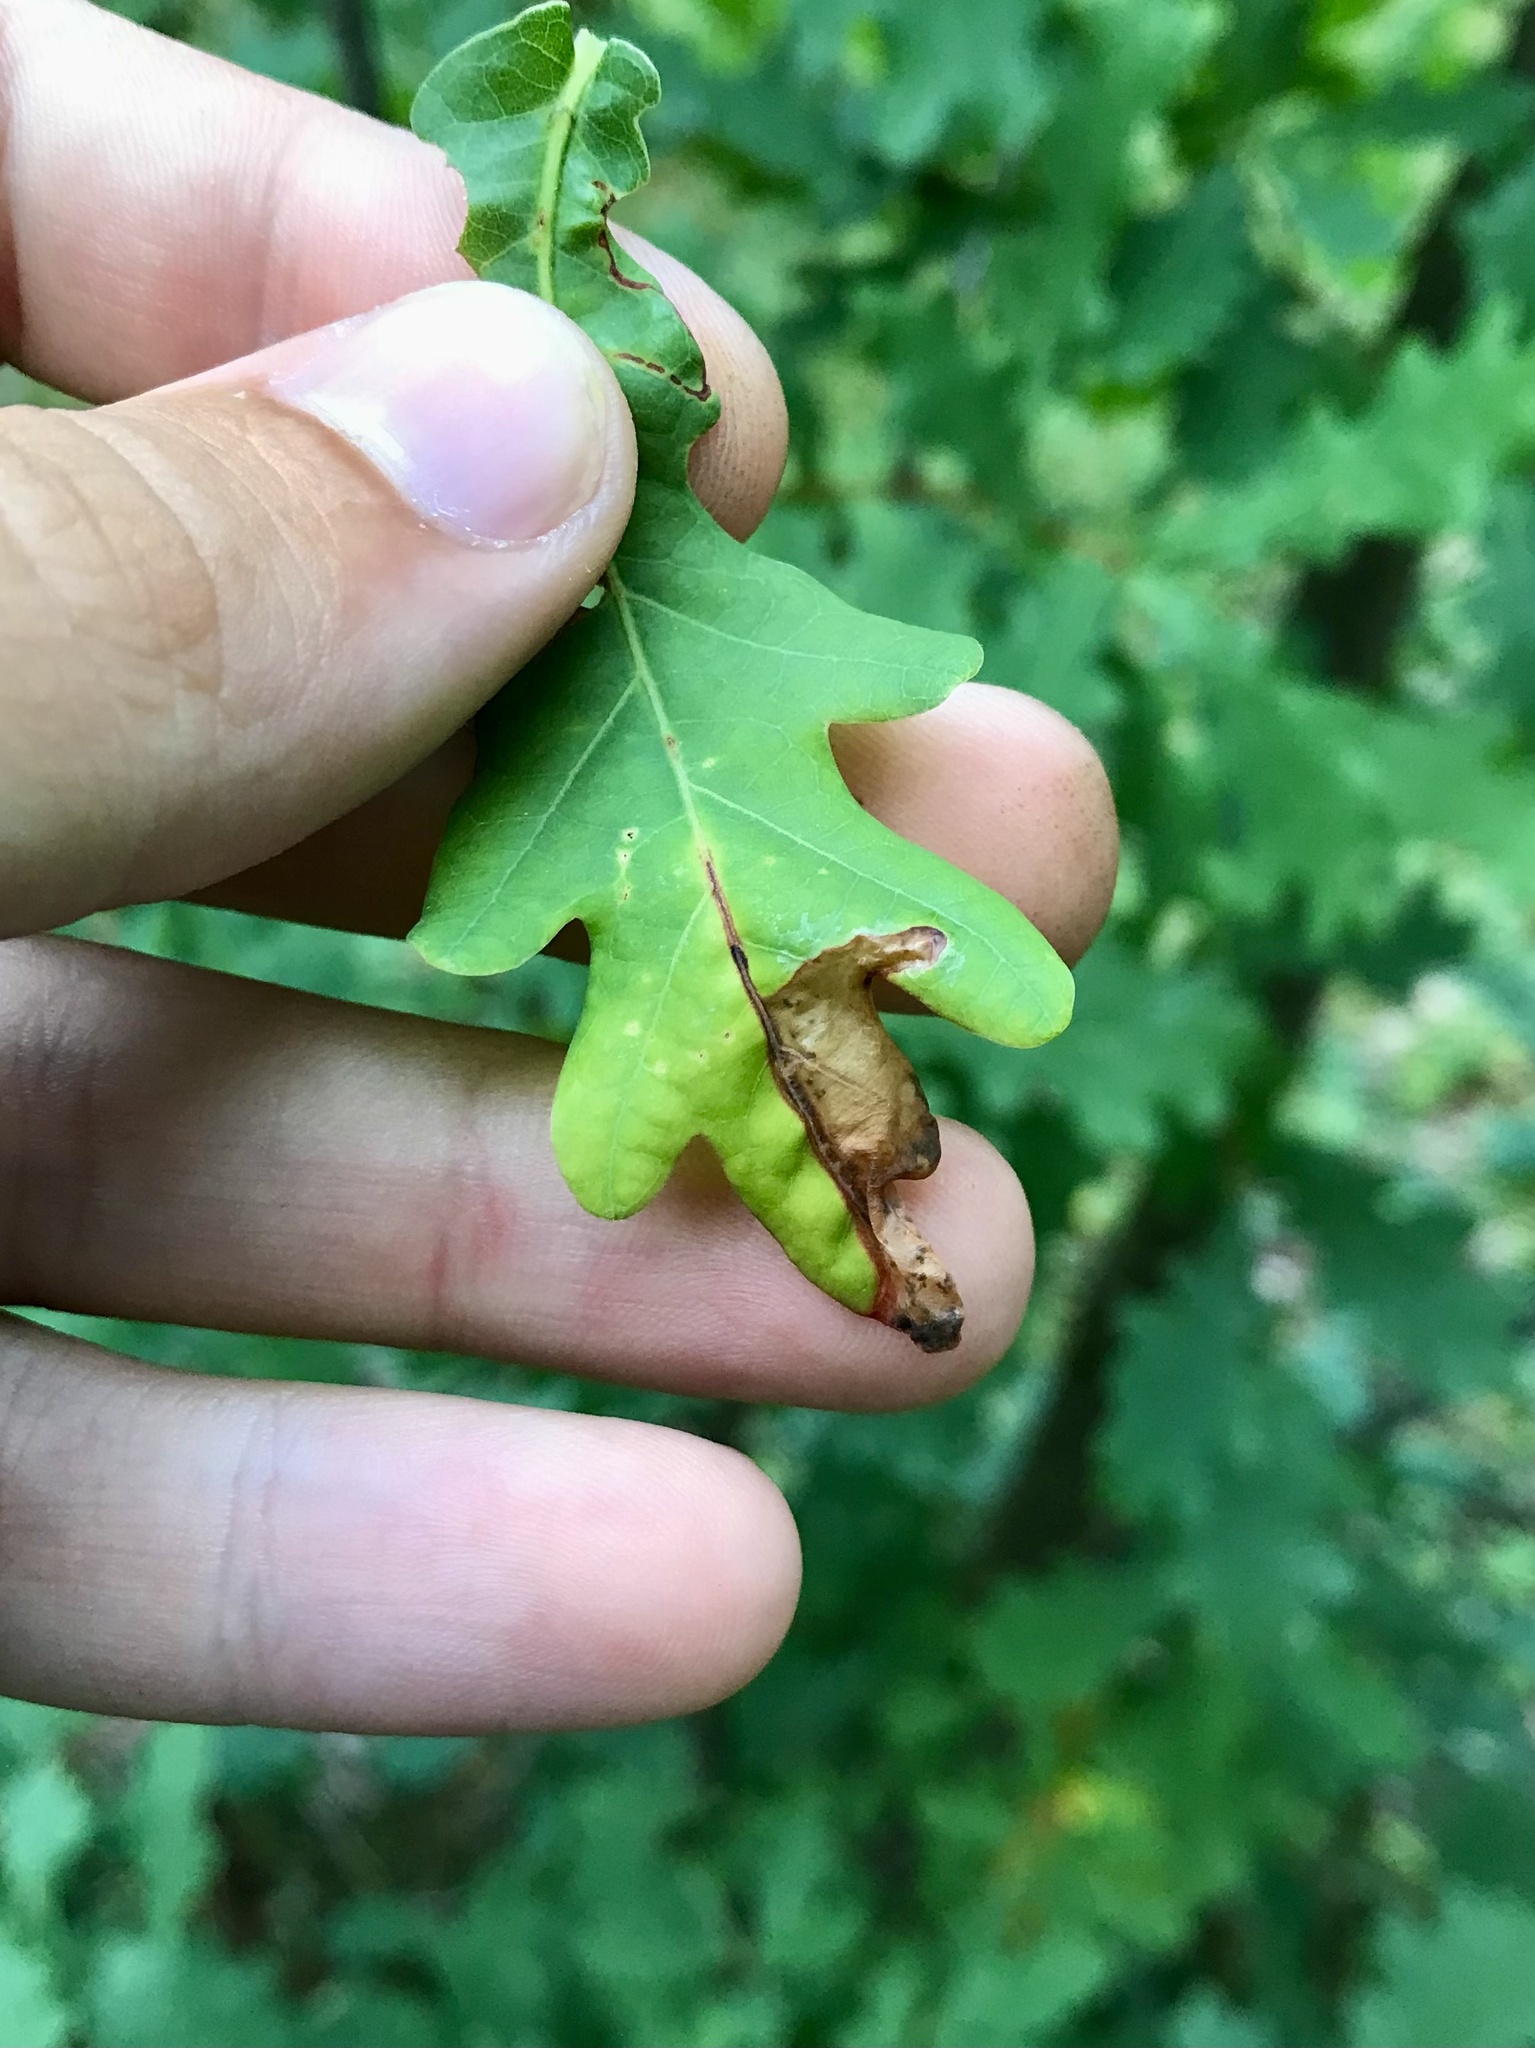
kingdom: Animalia
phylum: Arthropoda
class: Insecta
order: Lepidoptera
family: Gracillariidae
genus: Neurobathra
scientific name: Neurobathra strigifinitella
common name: Finite-channeled leafminer moth
